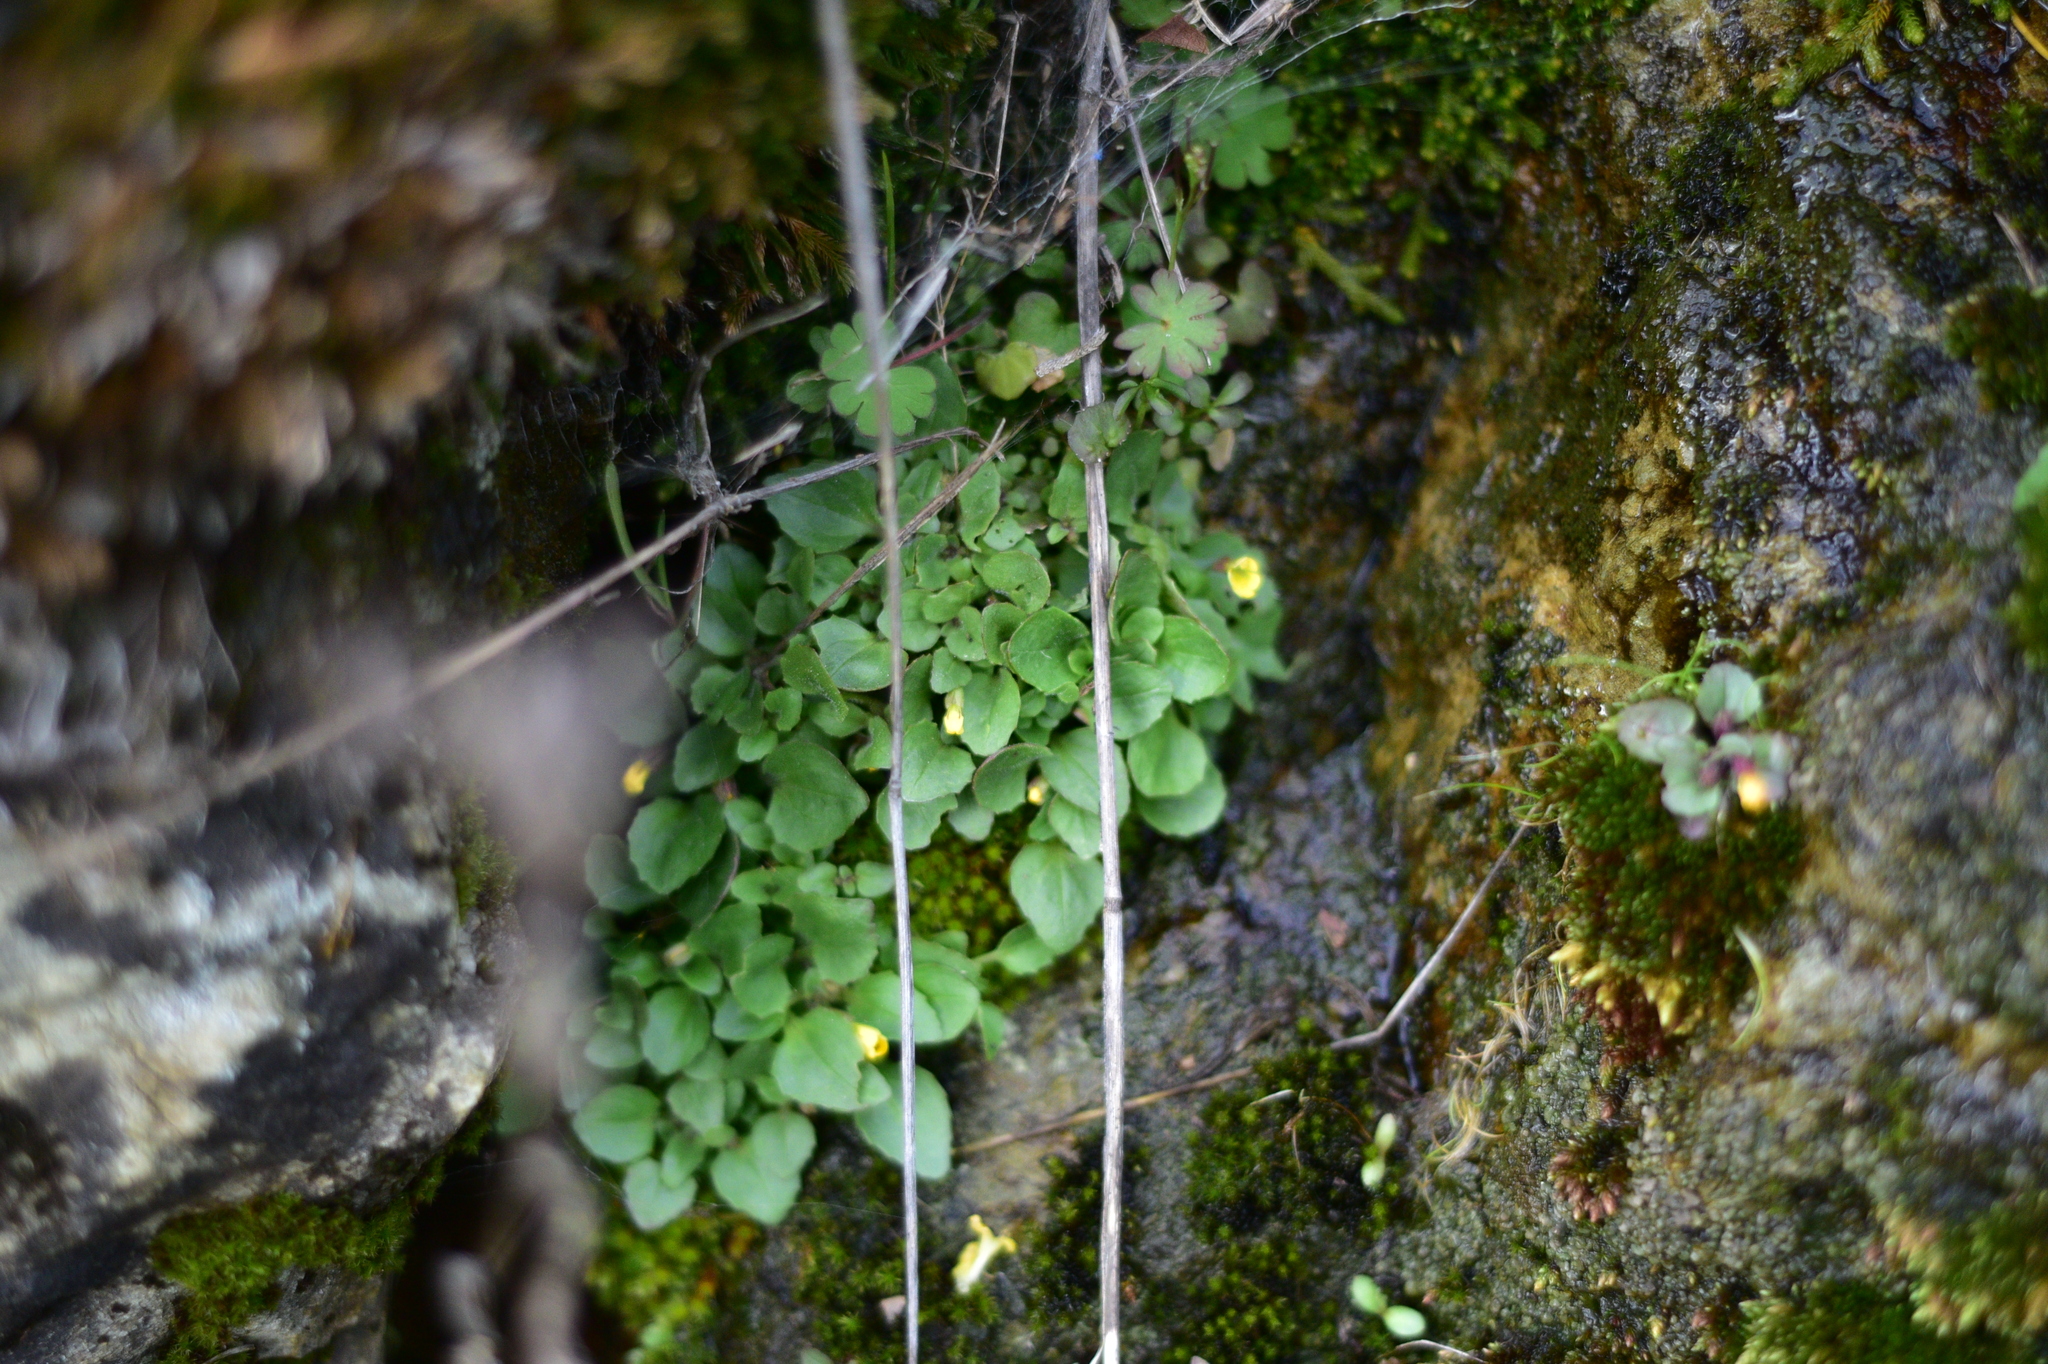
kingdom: Plantae
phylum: Tracheophyta
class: Magnoliopsida
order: Lamiales
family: Phrymaceae
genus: Erythranthe
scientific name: Erythranthe alsinoides
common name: Chickweed monkeyflower
